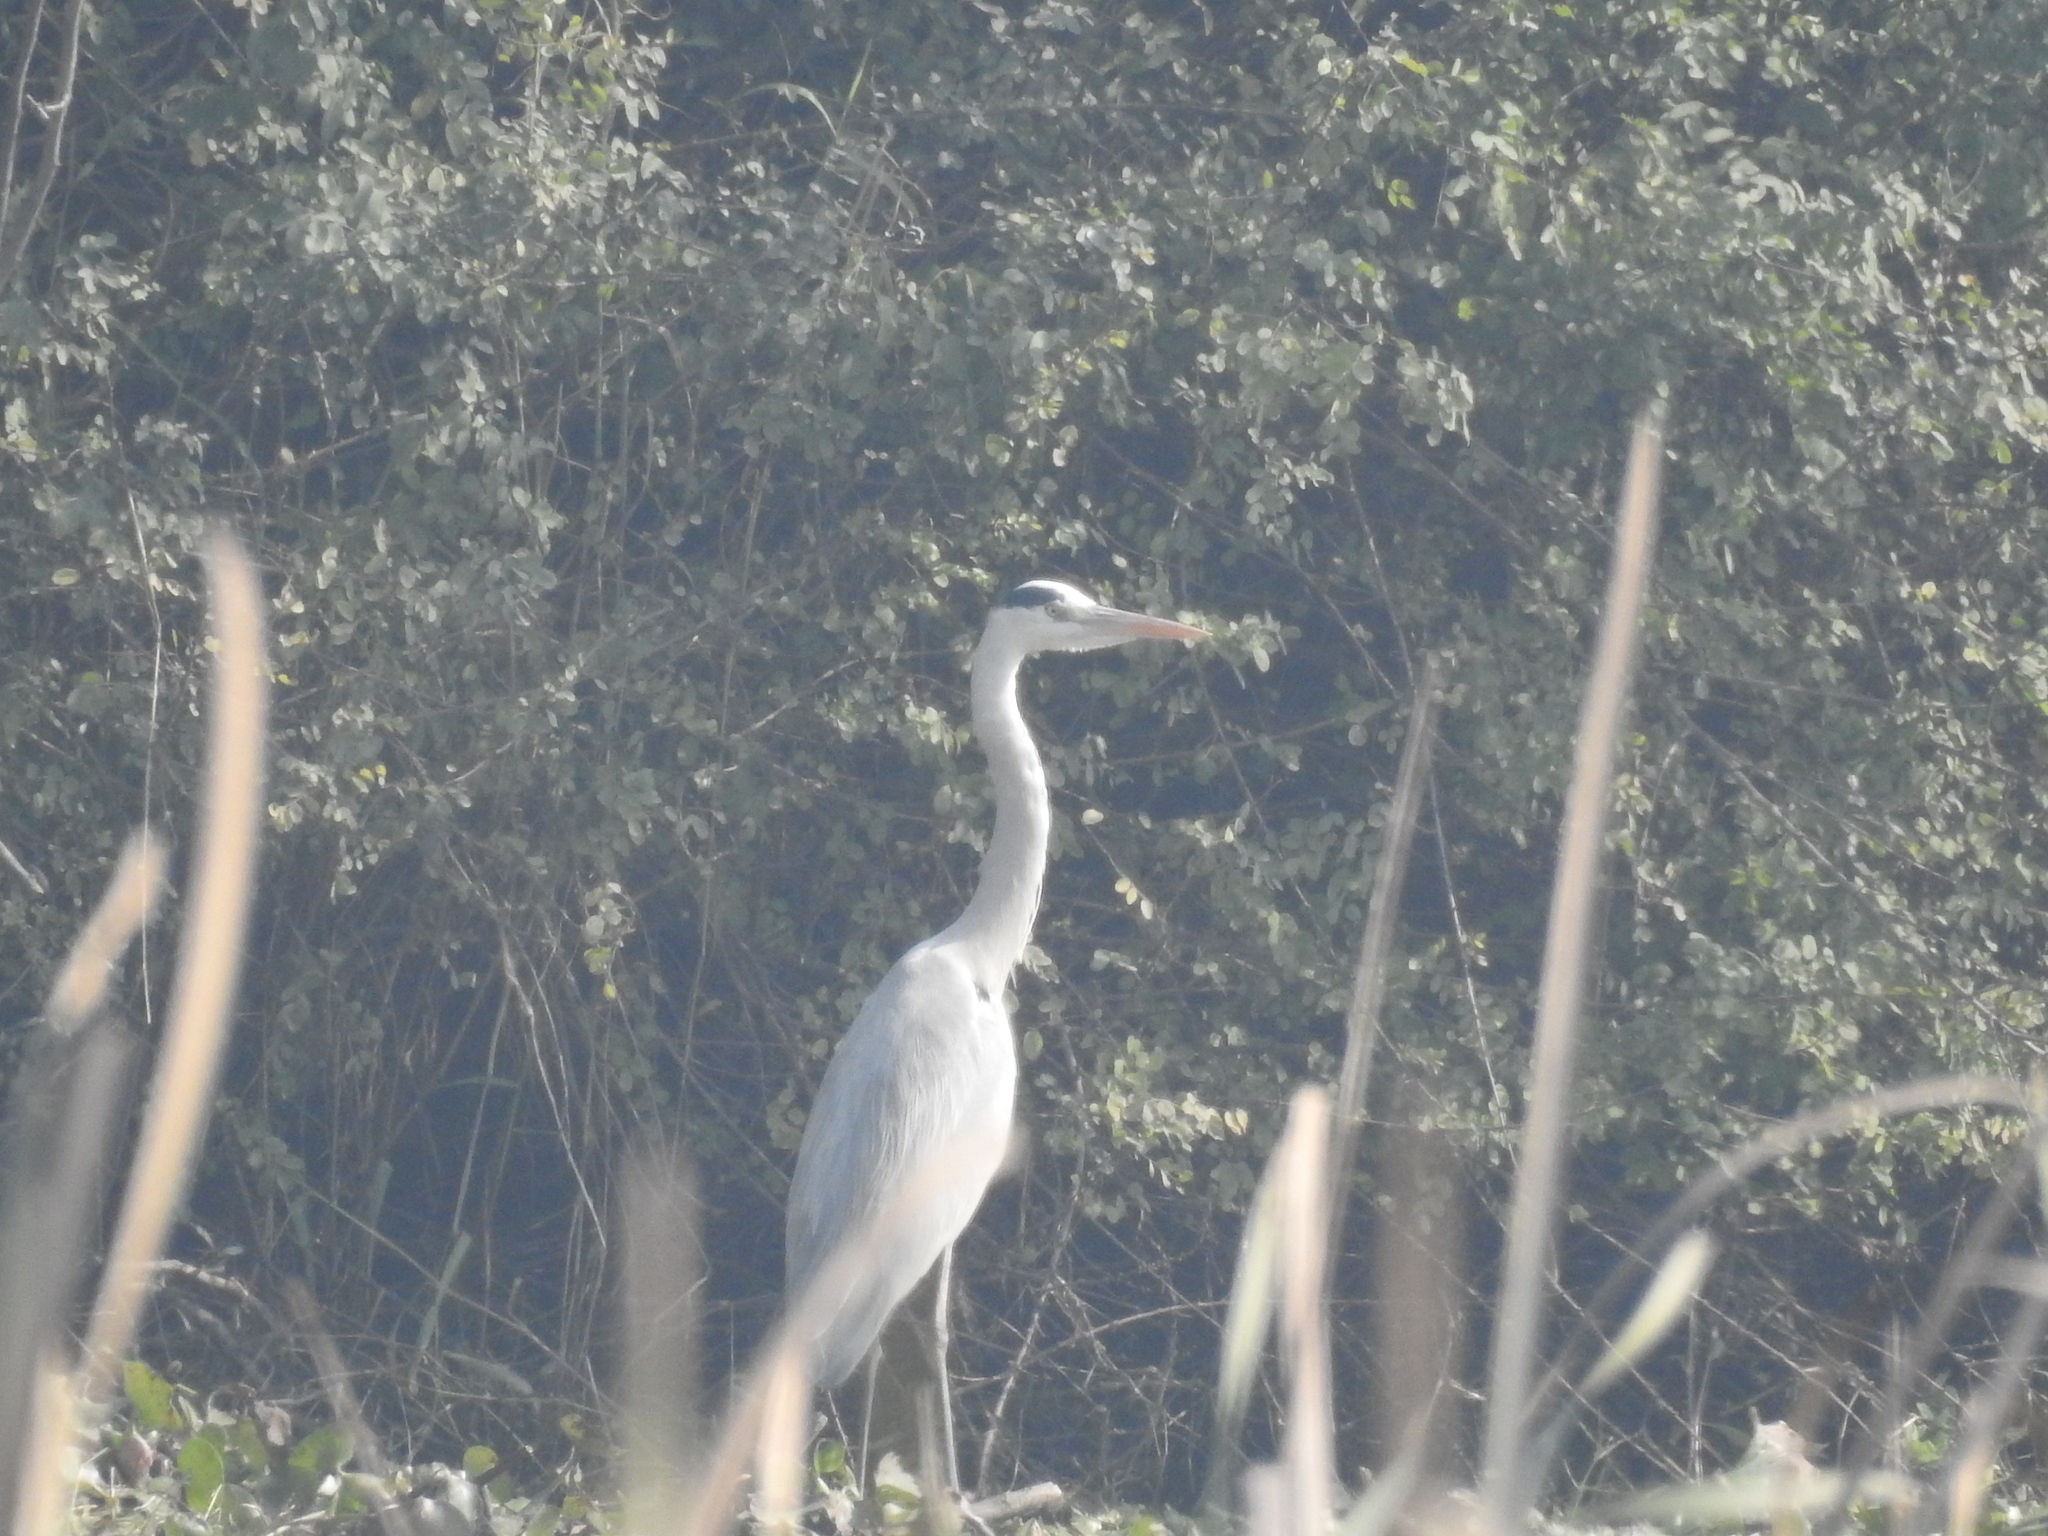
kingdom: Animalia
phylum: Chordata
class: Aves
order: Pelecaniformes
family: Ardeidae
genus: Ardea
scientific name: Ardea cinerea
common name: Grey heron
